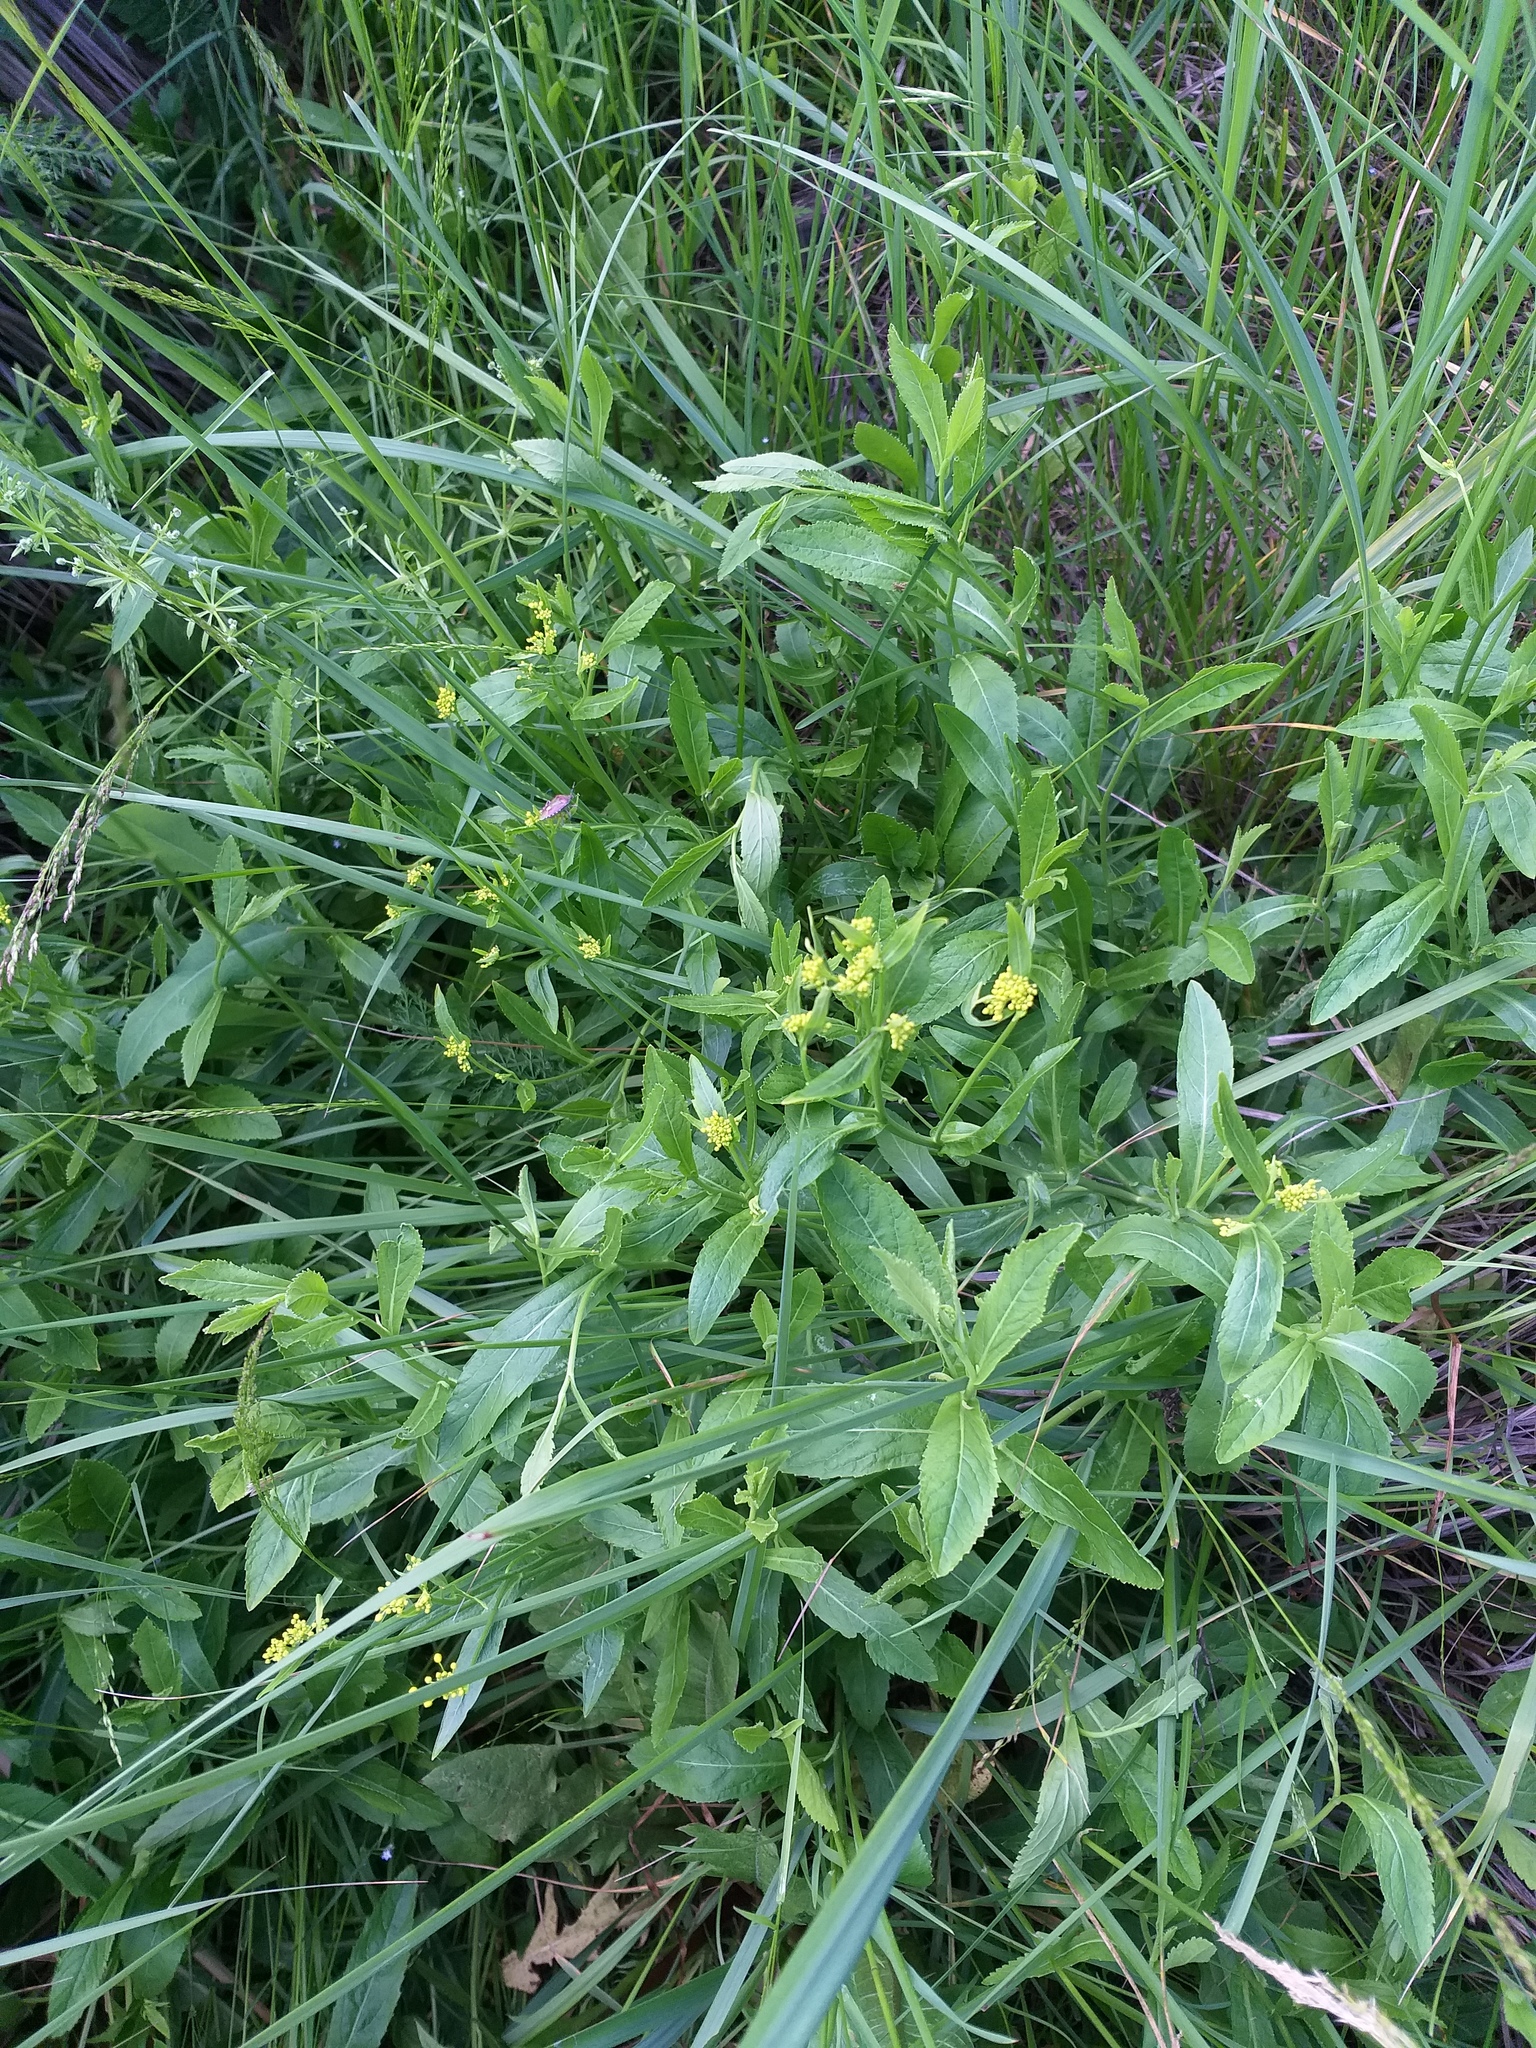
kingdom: Plantae
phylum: Tracheophyta
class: Magnoliopsida
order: Brassicales
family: Brassicaceae
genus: Rorippa
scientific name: Rorippa austriaca
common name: Austrian yellow-cress
